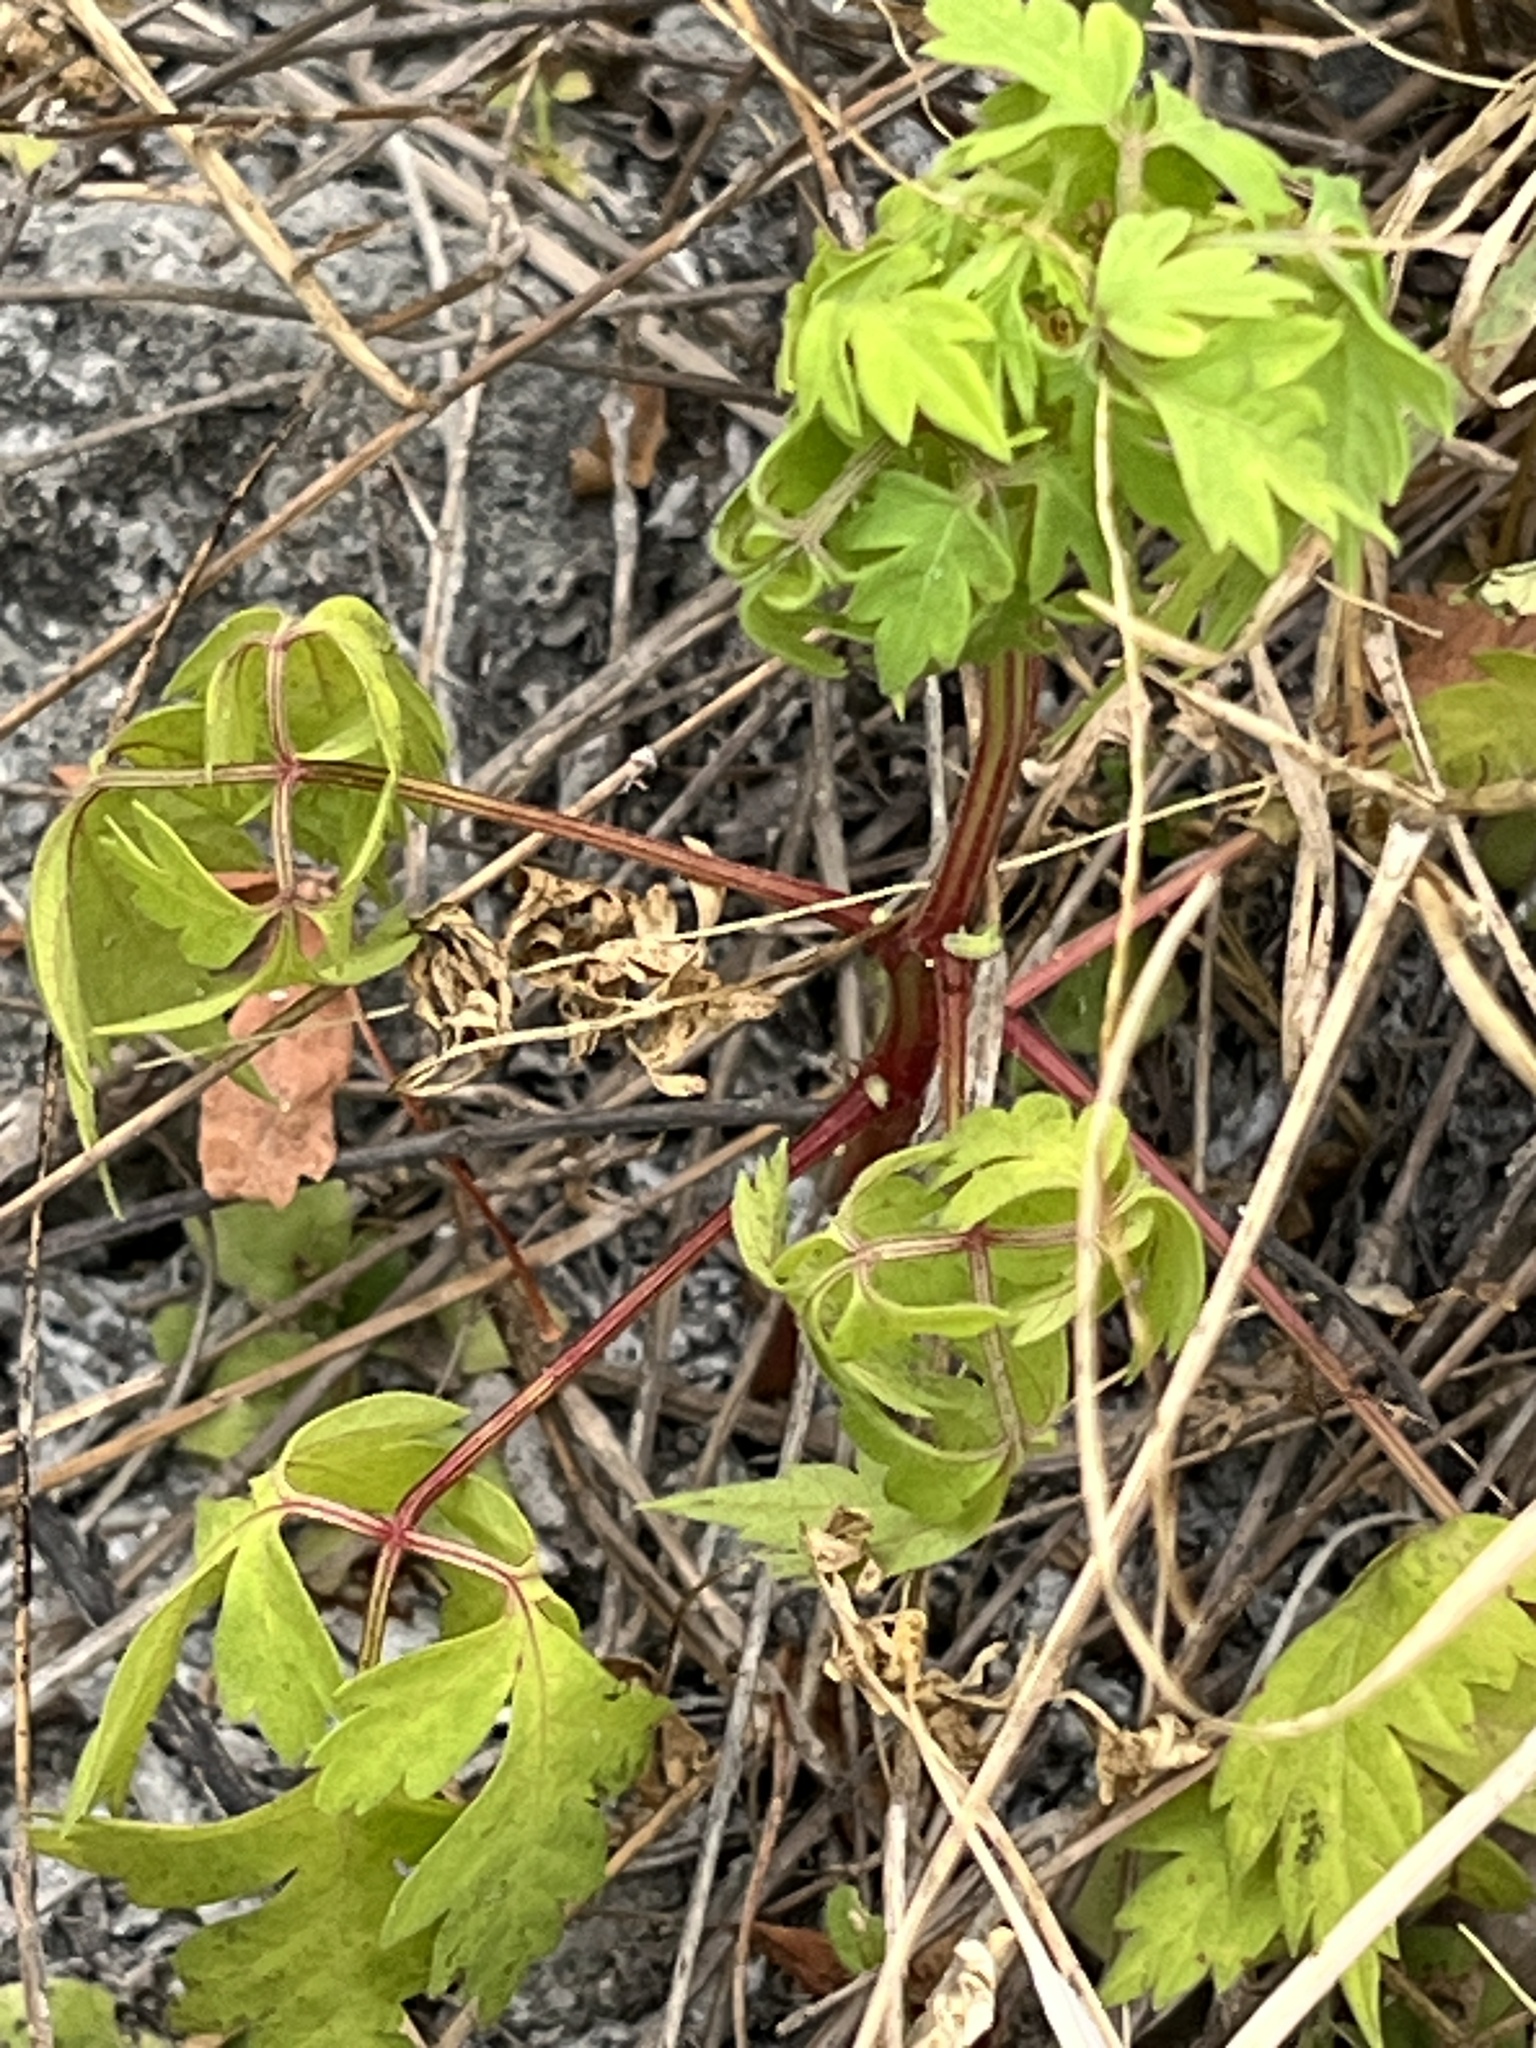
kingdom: Plantae
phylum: Tracheophyta
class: Magnoliopsida
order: Sapindales
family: Sapindaceae
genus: Cardiospermum
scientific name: Cardiospermum halicacabum
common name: Balloon vine
